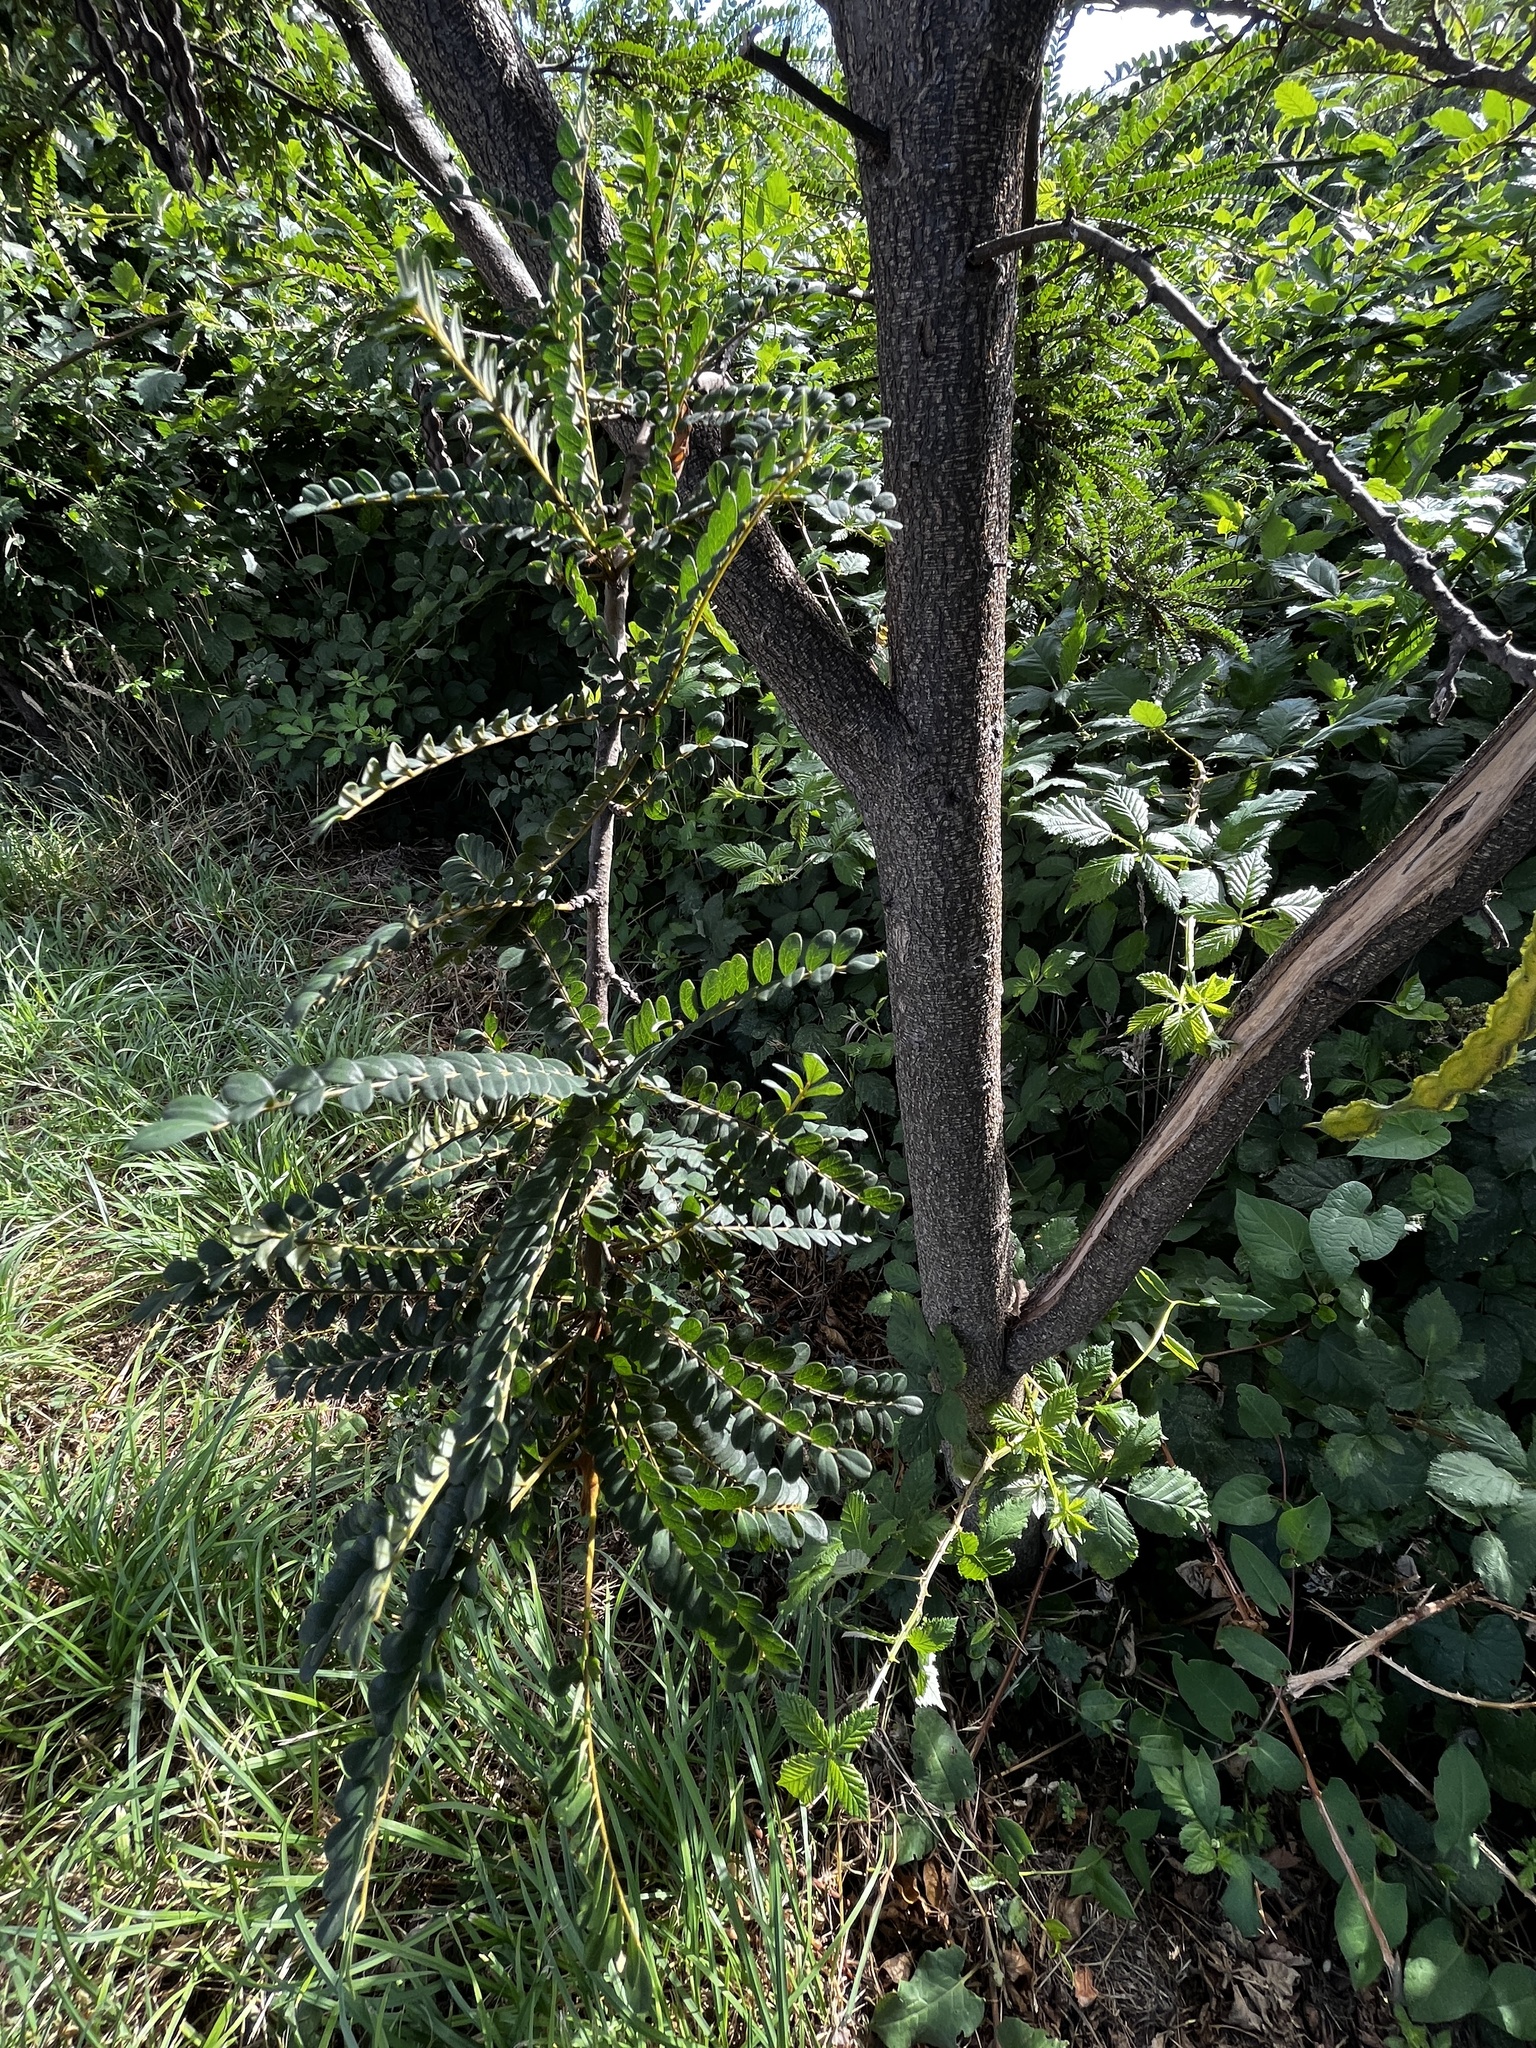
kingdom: Plantae
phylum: Tracheophyta
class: Magnoliopsida
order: Fabales
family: Fabaceae
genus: Sophora
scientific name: Sophora cassioides
